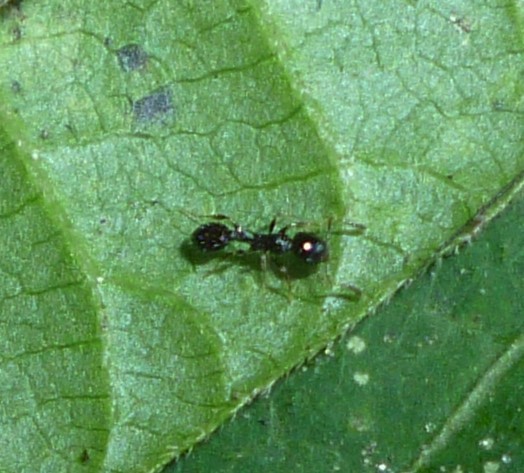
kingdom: Animalia
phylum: Arthropoda
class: Insecta
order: Hymenoptera
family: Formicidae
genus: Temnothorax
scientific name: Temnothorax longispinosus
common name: Long-spined acorn ant
